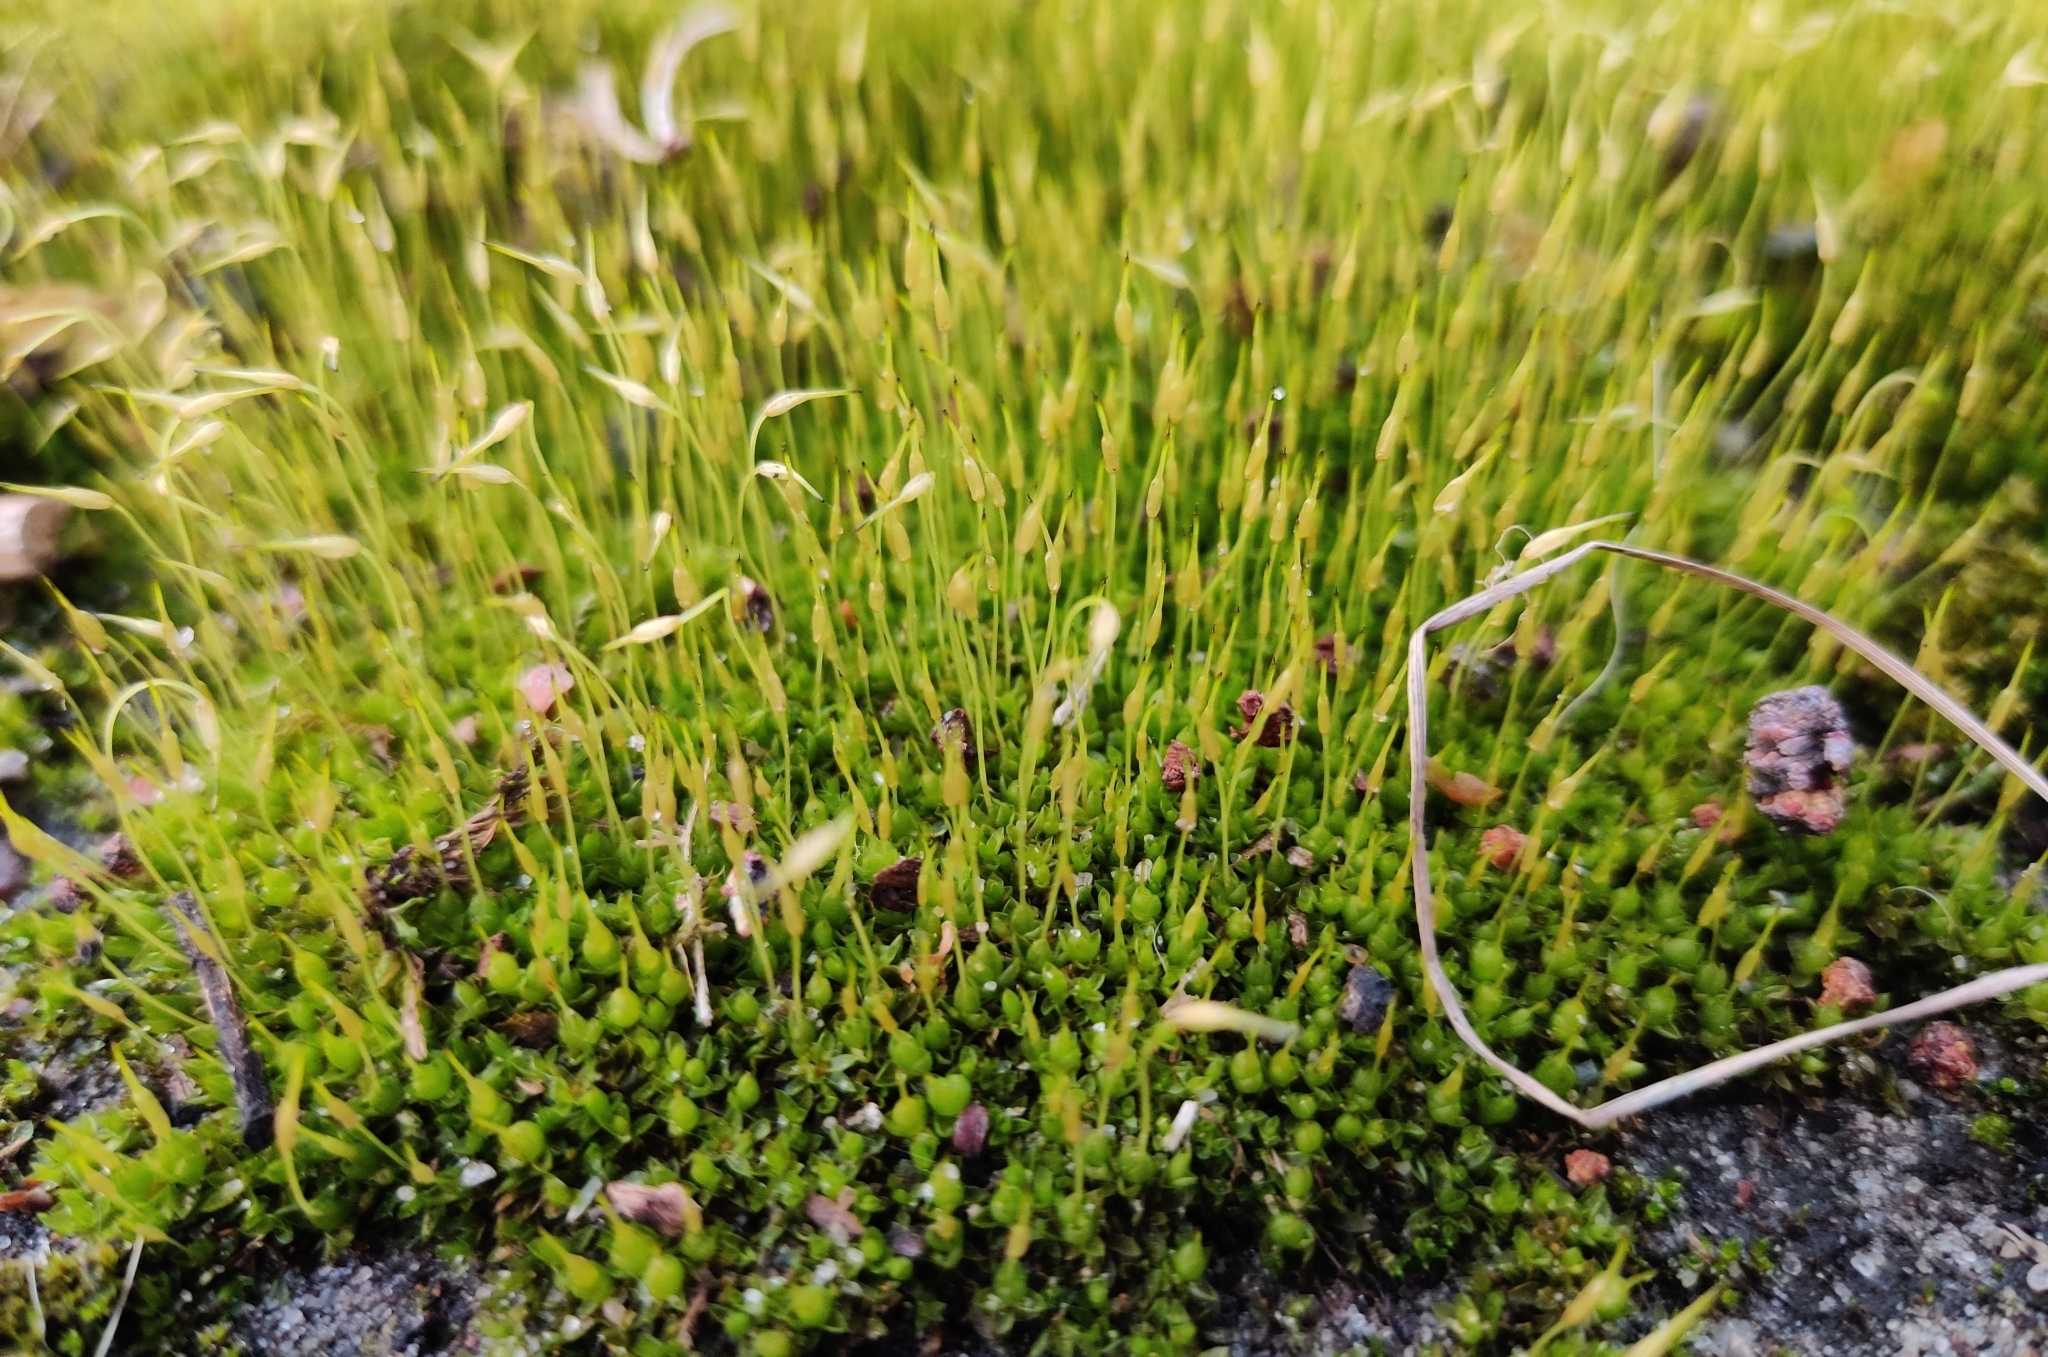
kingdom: Plantae
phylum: Bryophyta
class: Bryopsida
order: Funariales
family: Funariaceae
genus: Funaria
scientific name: Funaria hygrometrica
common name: Common cord moss
